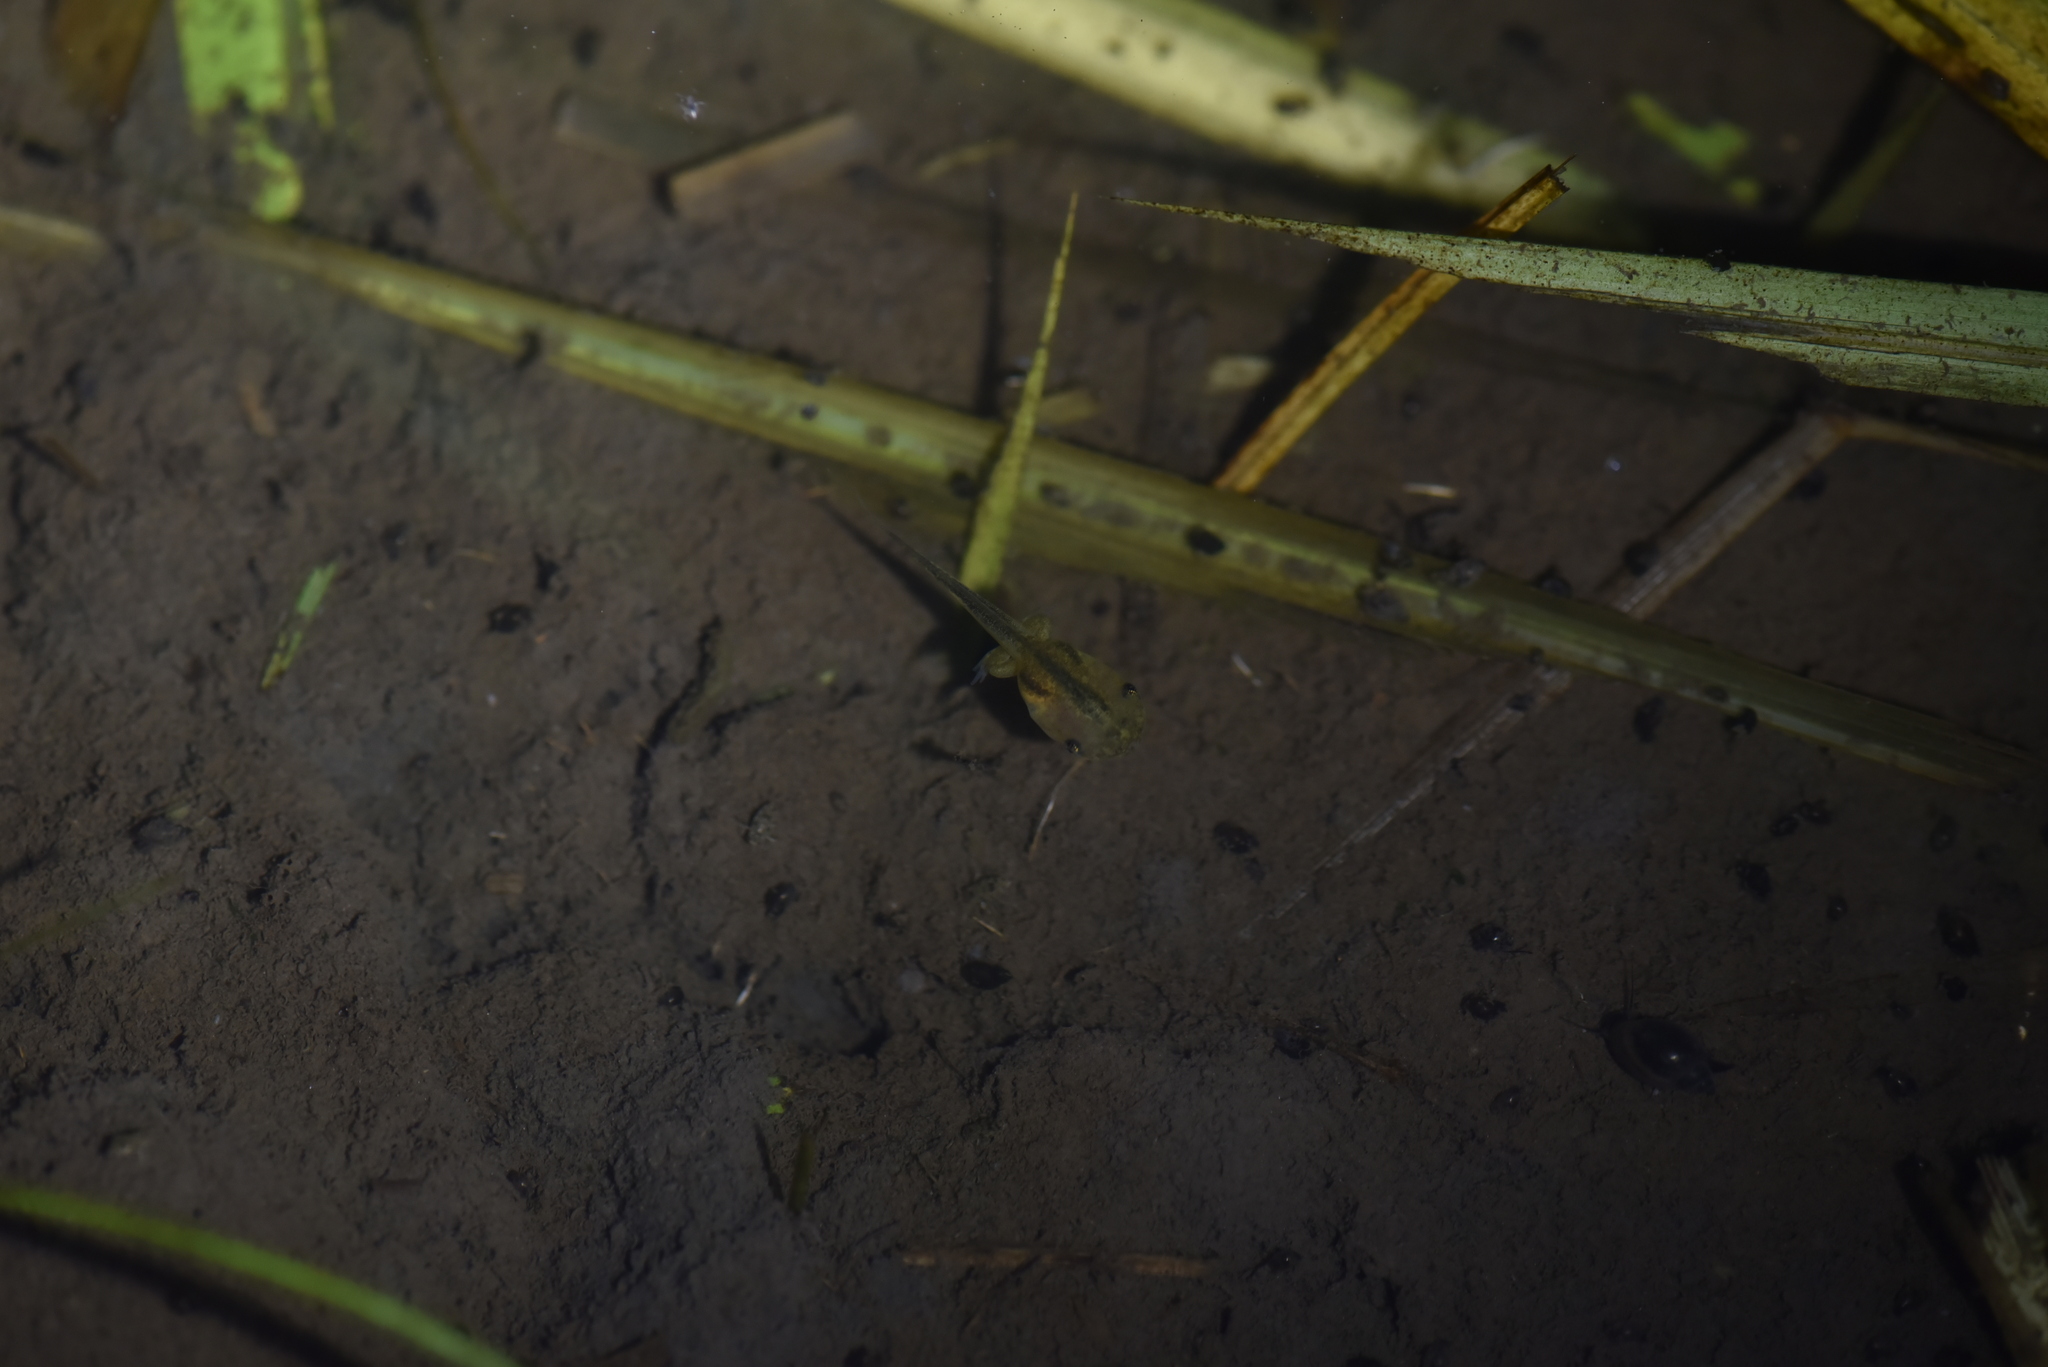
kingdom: Animalia
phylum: Chordata
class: Amphibia
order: Anura
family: Microhylidae
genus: Microhyla
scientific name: Microhyla fissipes
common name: Ornate narrow-mouthed frog
